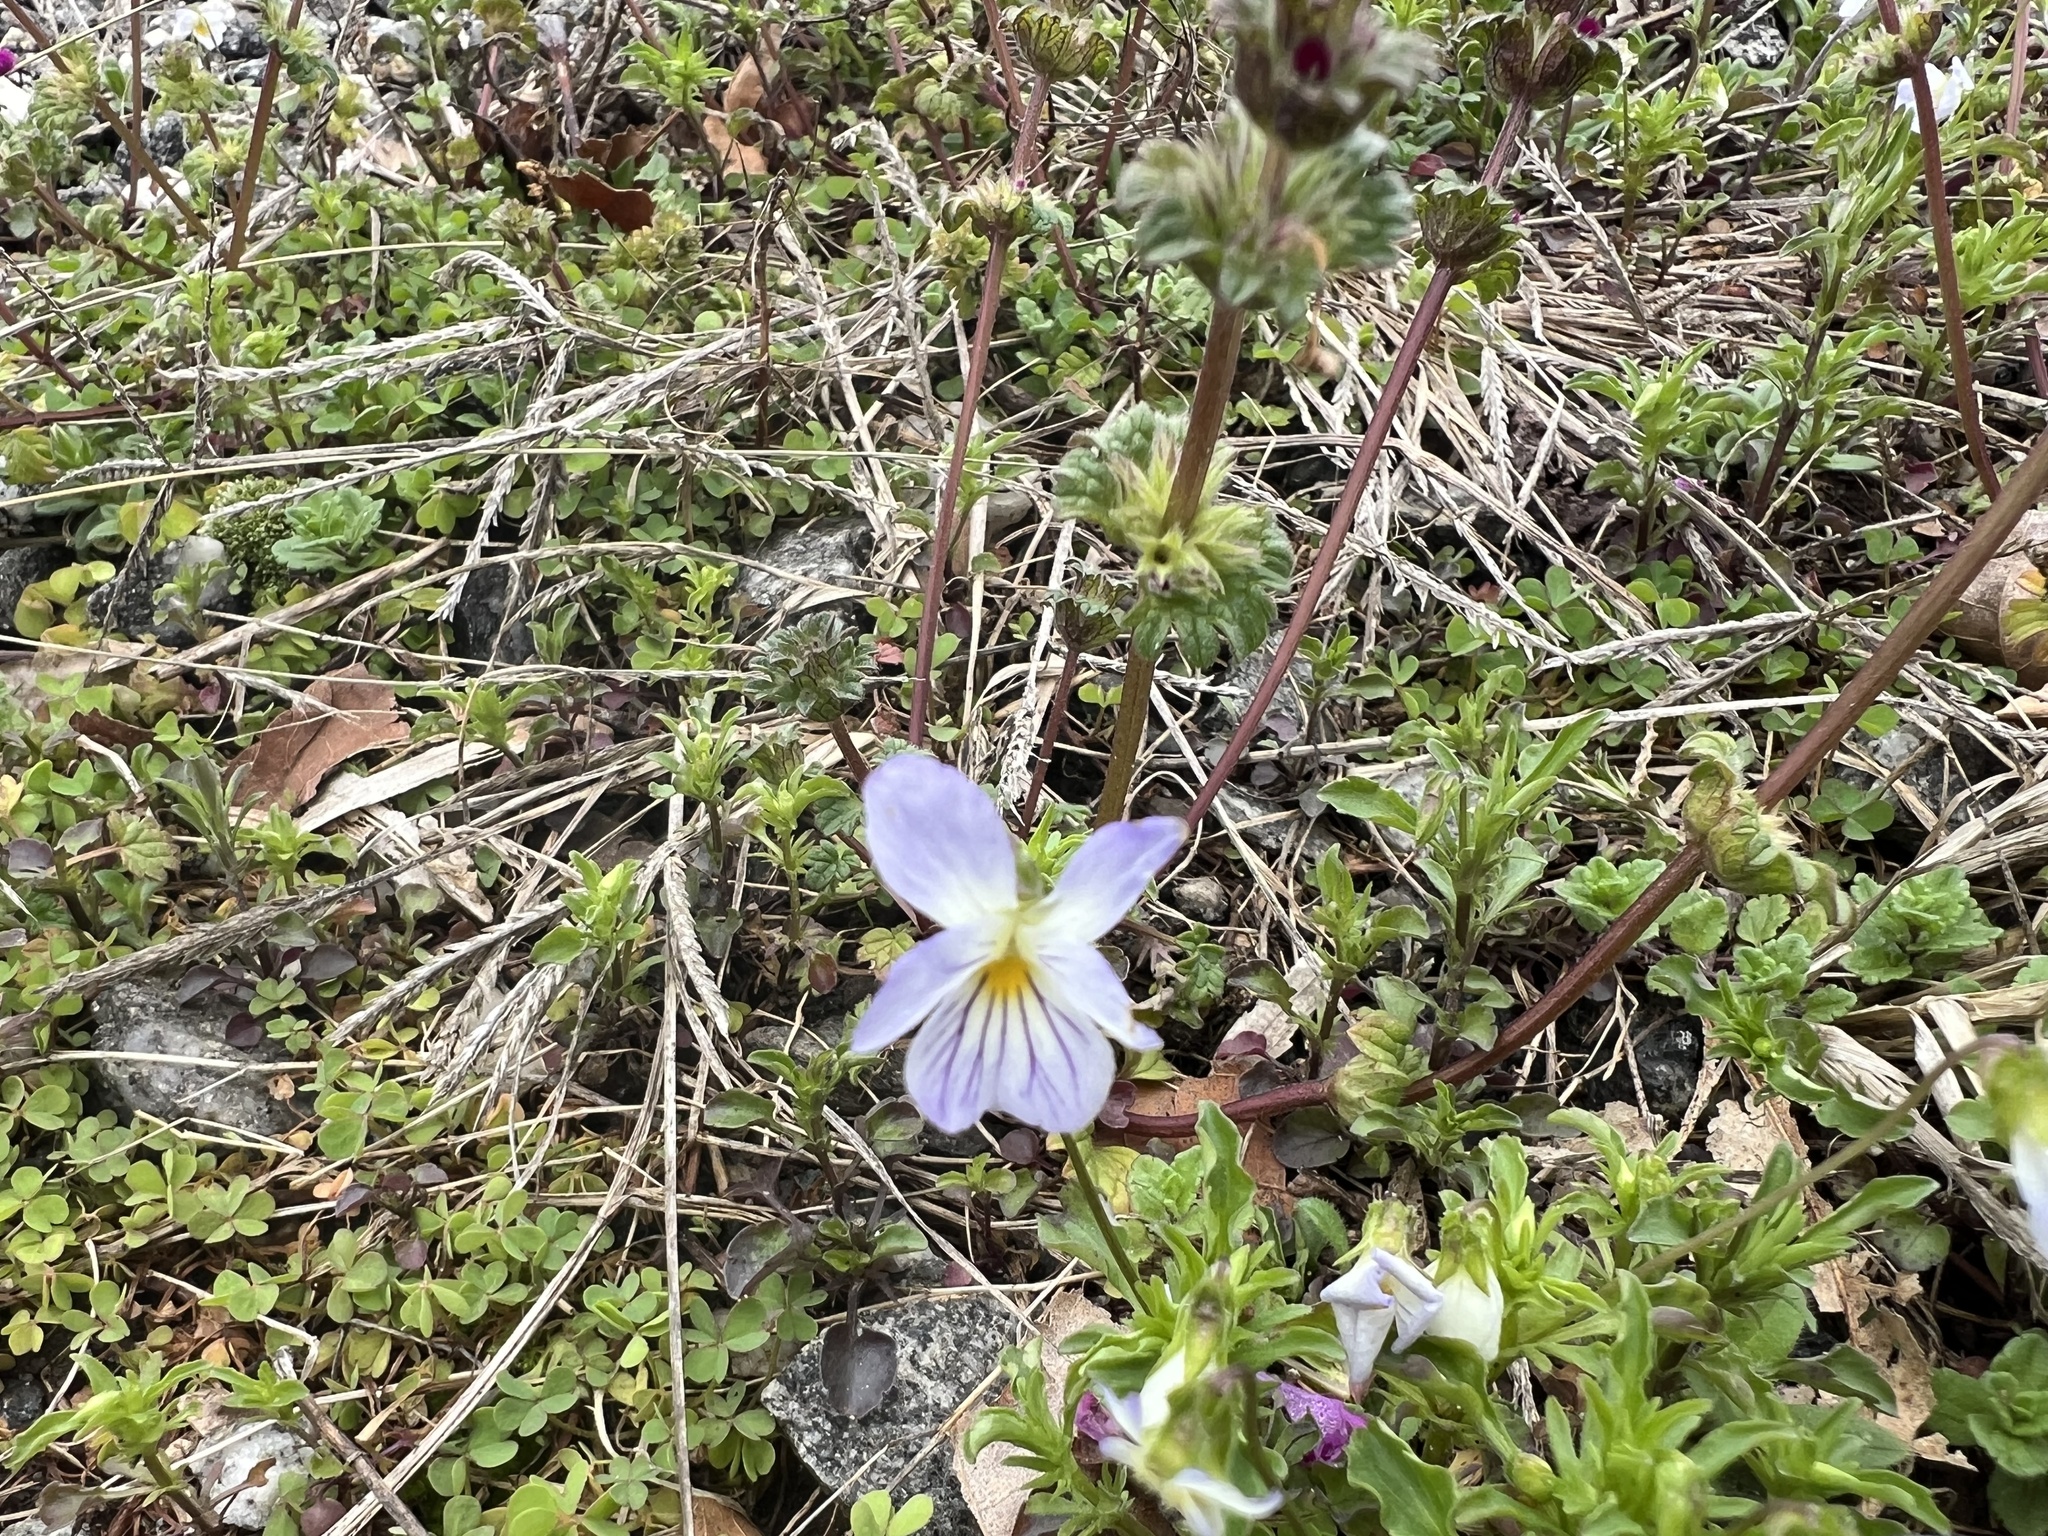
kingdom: Plantae
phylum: Tracheophyta
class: Magnoliopsida
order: Malpighiales
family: Violaceae
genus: Viola
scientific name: Viola rafinesquei
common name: American field pansy
